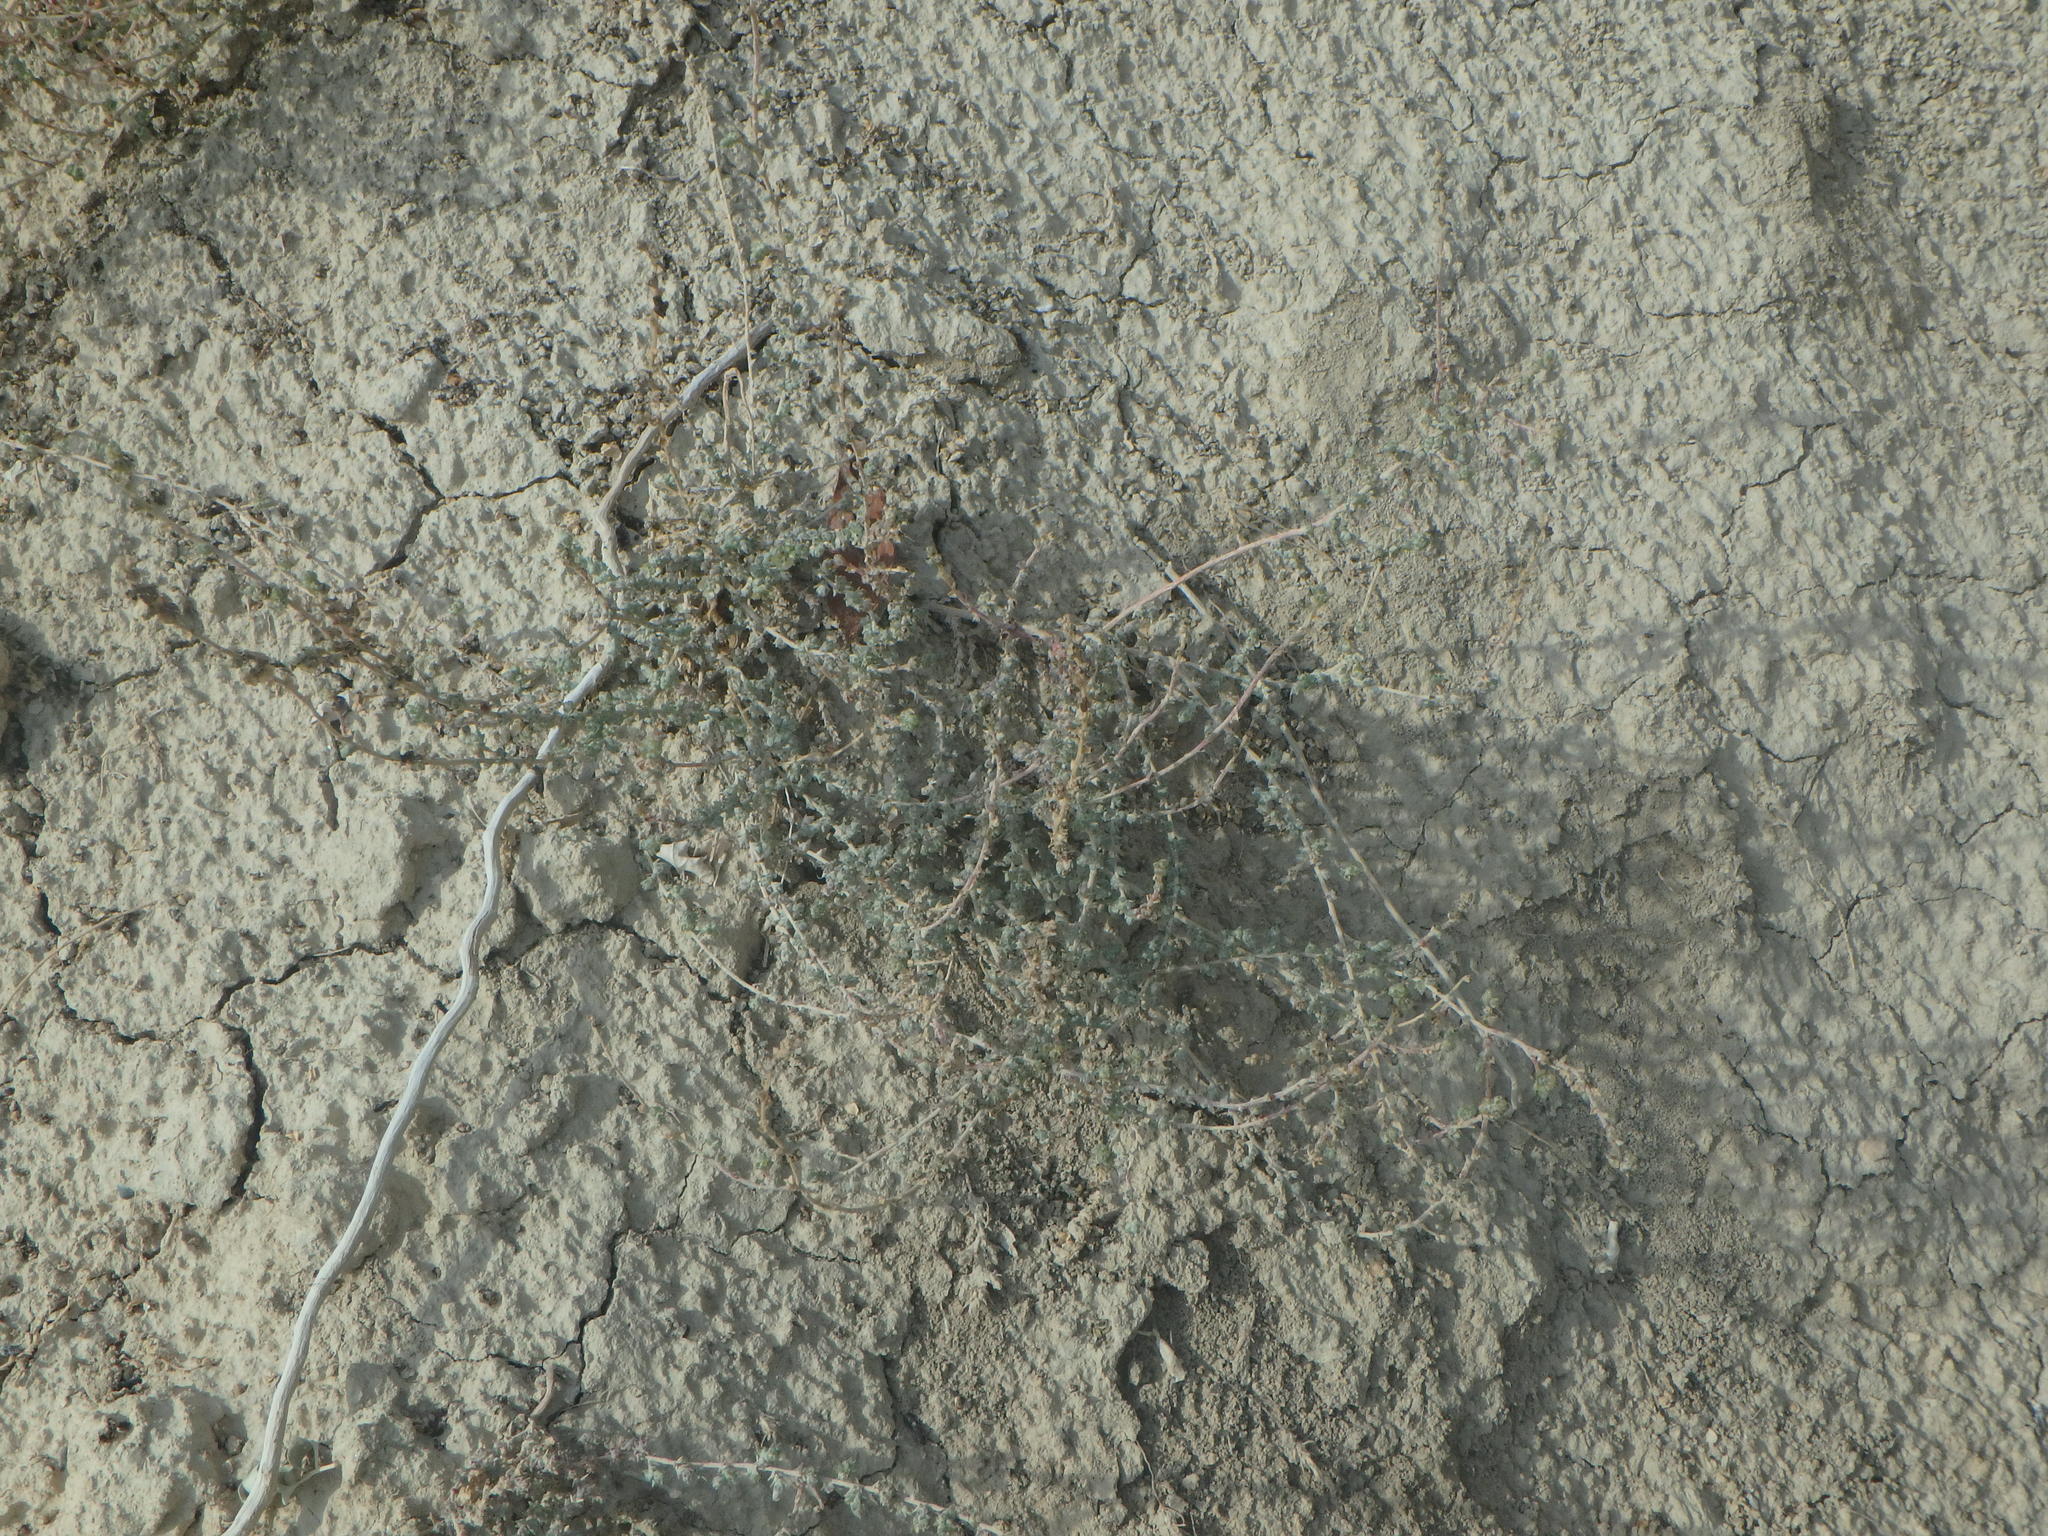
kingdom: Plantae
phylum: Tracheophyta
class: Magnoliopsida
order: Caryophyllales
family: Amaranthaceae
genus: Noaea
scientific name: Noaea mucronata
